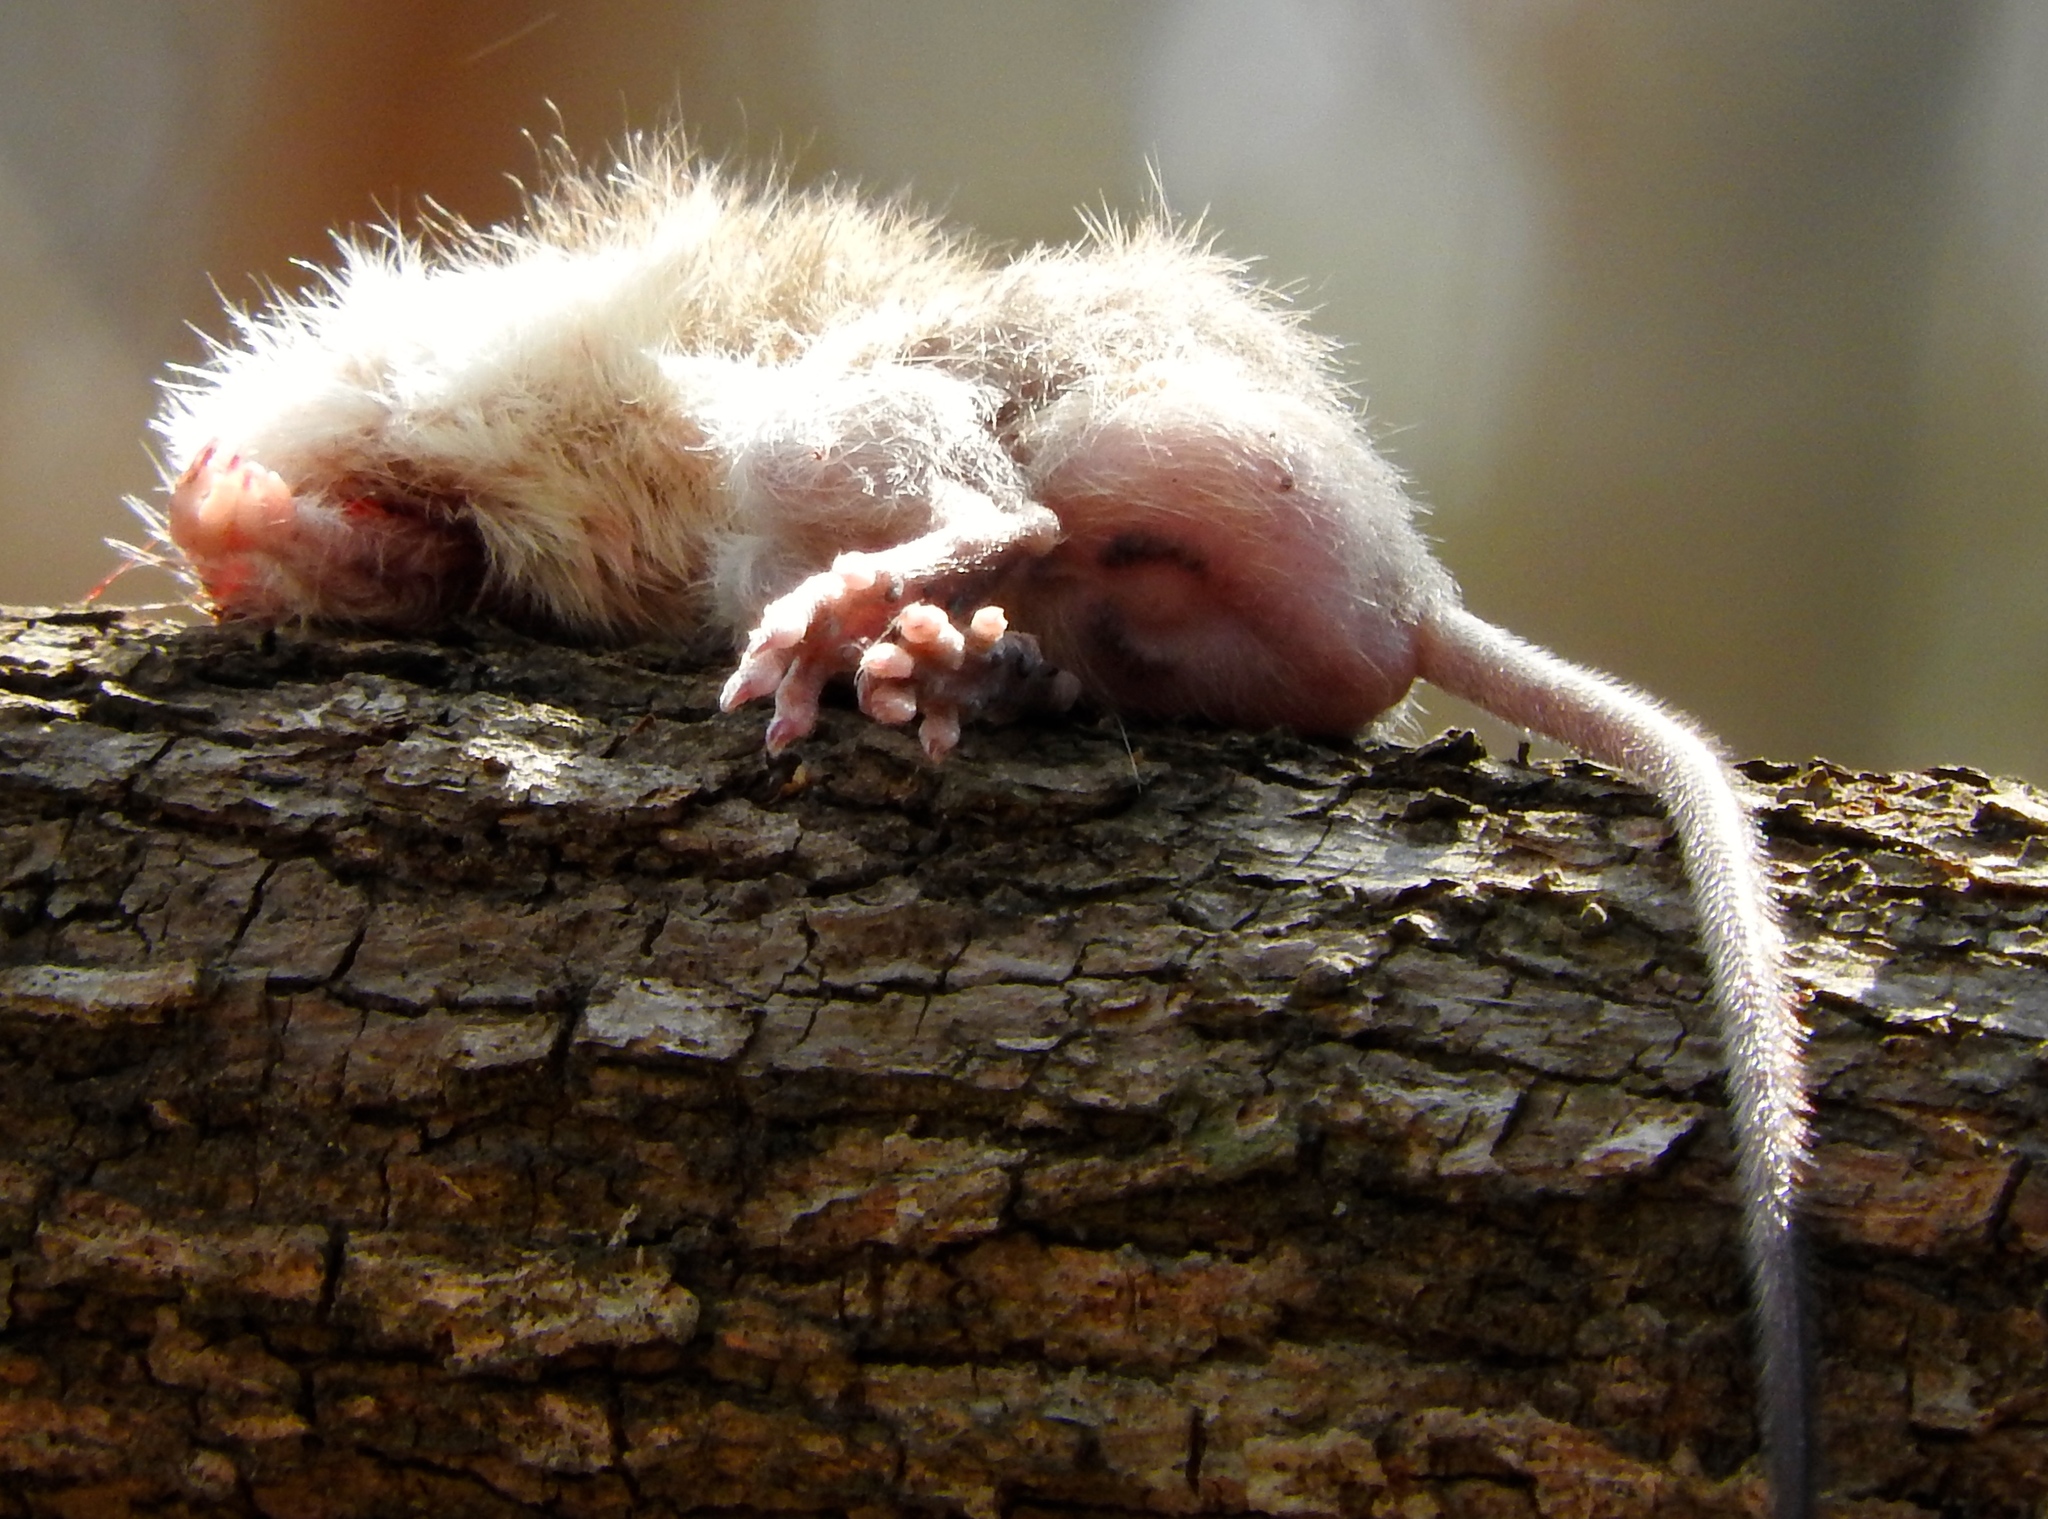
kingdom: Animalia
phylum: Chordata
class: Mammalia
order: Rodentia
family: Heteromyidae
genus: Liomys
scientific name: Liomys pictus
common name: Painted spiny pocket mouse
